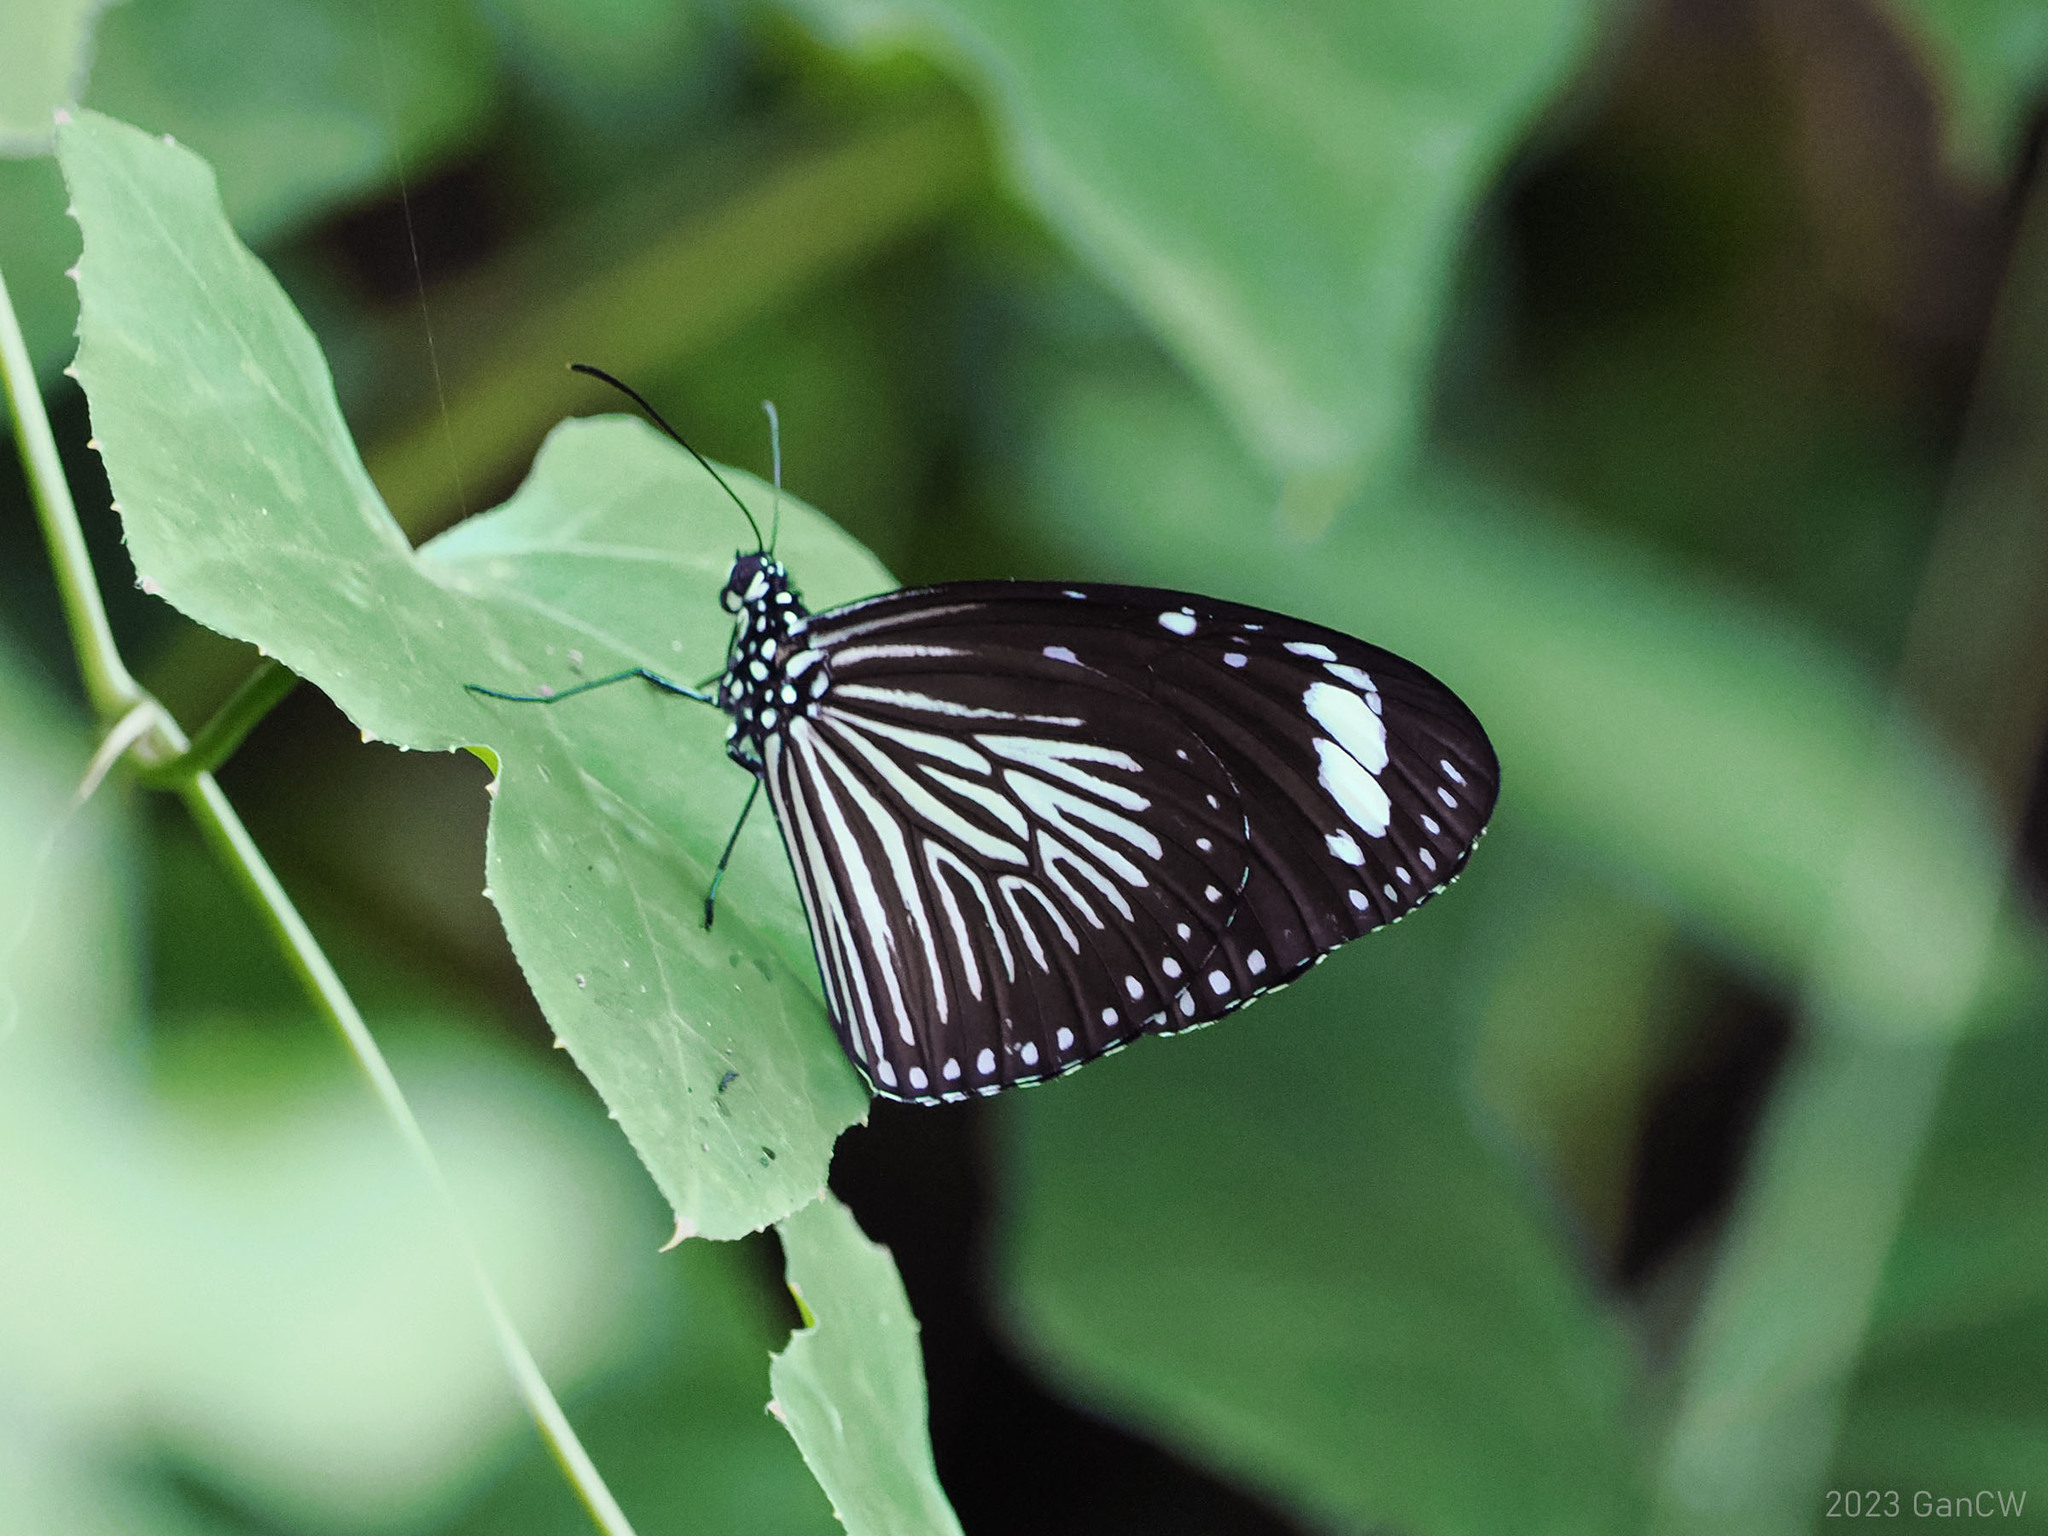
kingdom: Animalia
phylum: Arthropoda
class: Insecta
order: Lepidoptera
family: Nymphalidae
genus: Euploea
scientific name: Euploea mulciber
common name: Striped blue crow butterfly
